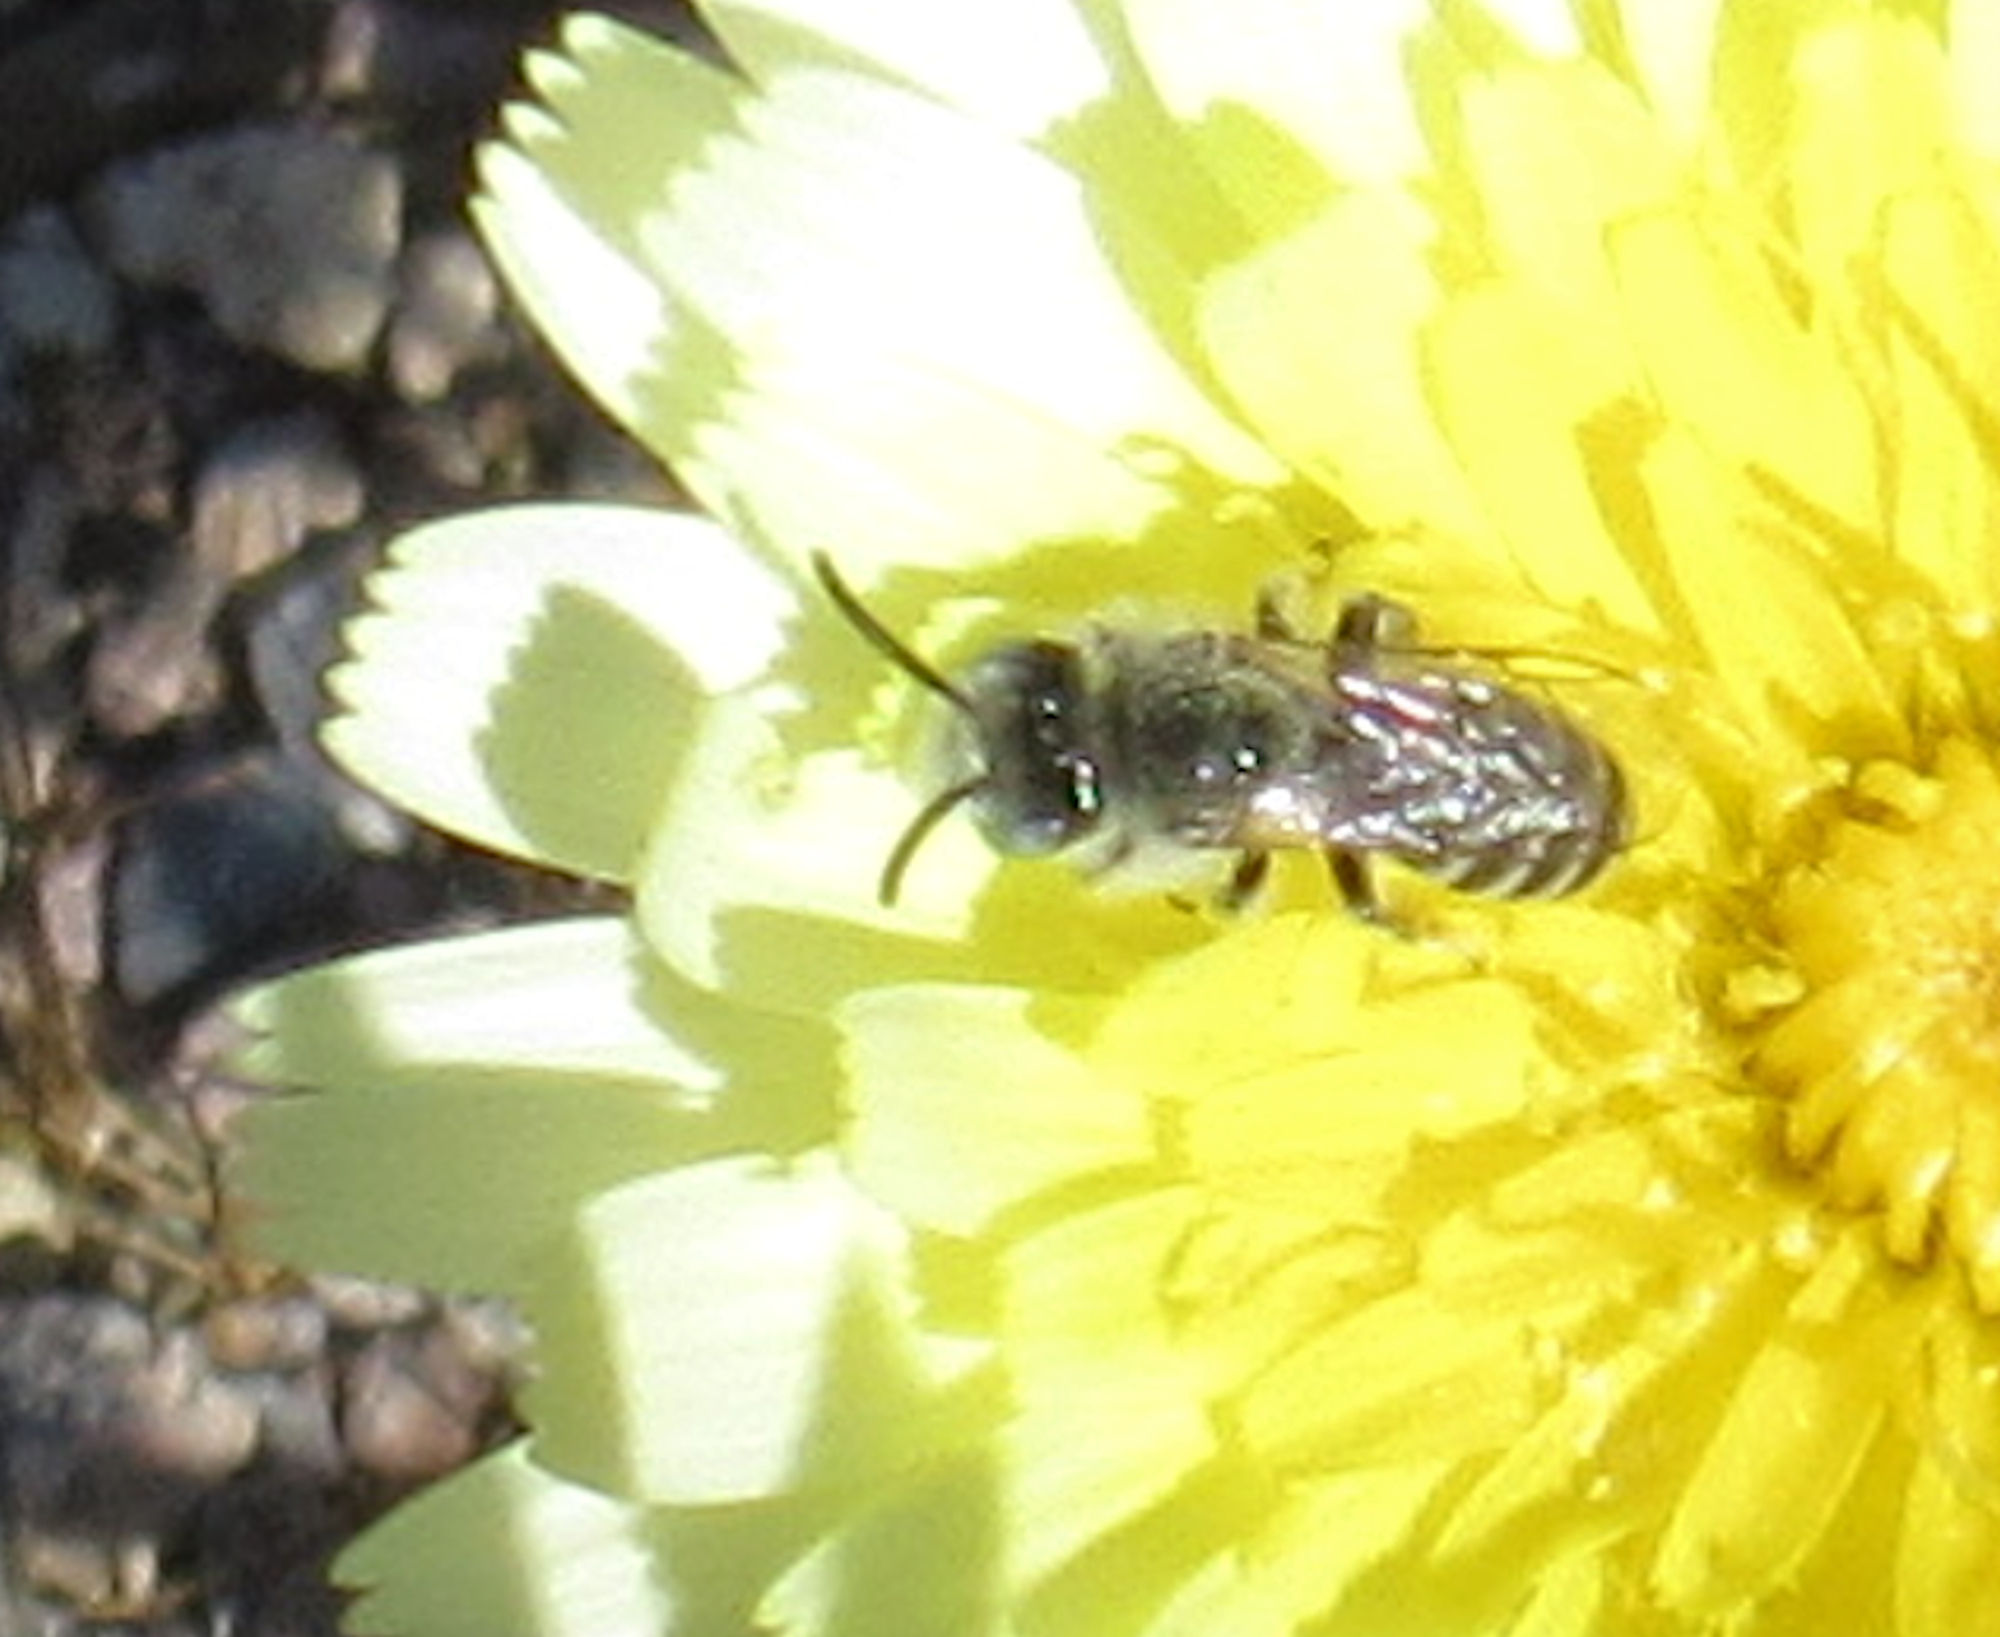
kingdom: Animalia
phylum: Arthropoda
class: Insecta
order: Hymenoptera
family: Melittidae
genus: Hesperapis
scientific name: Hesperapis
